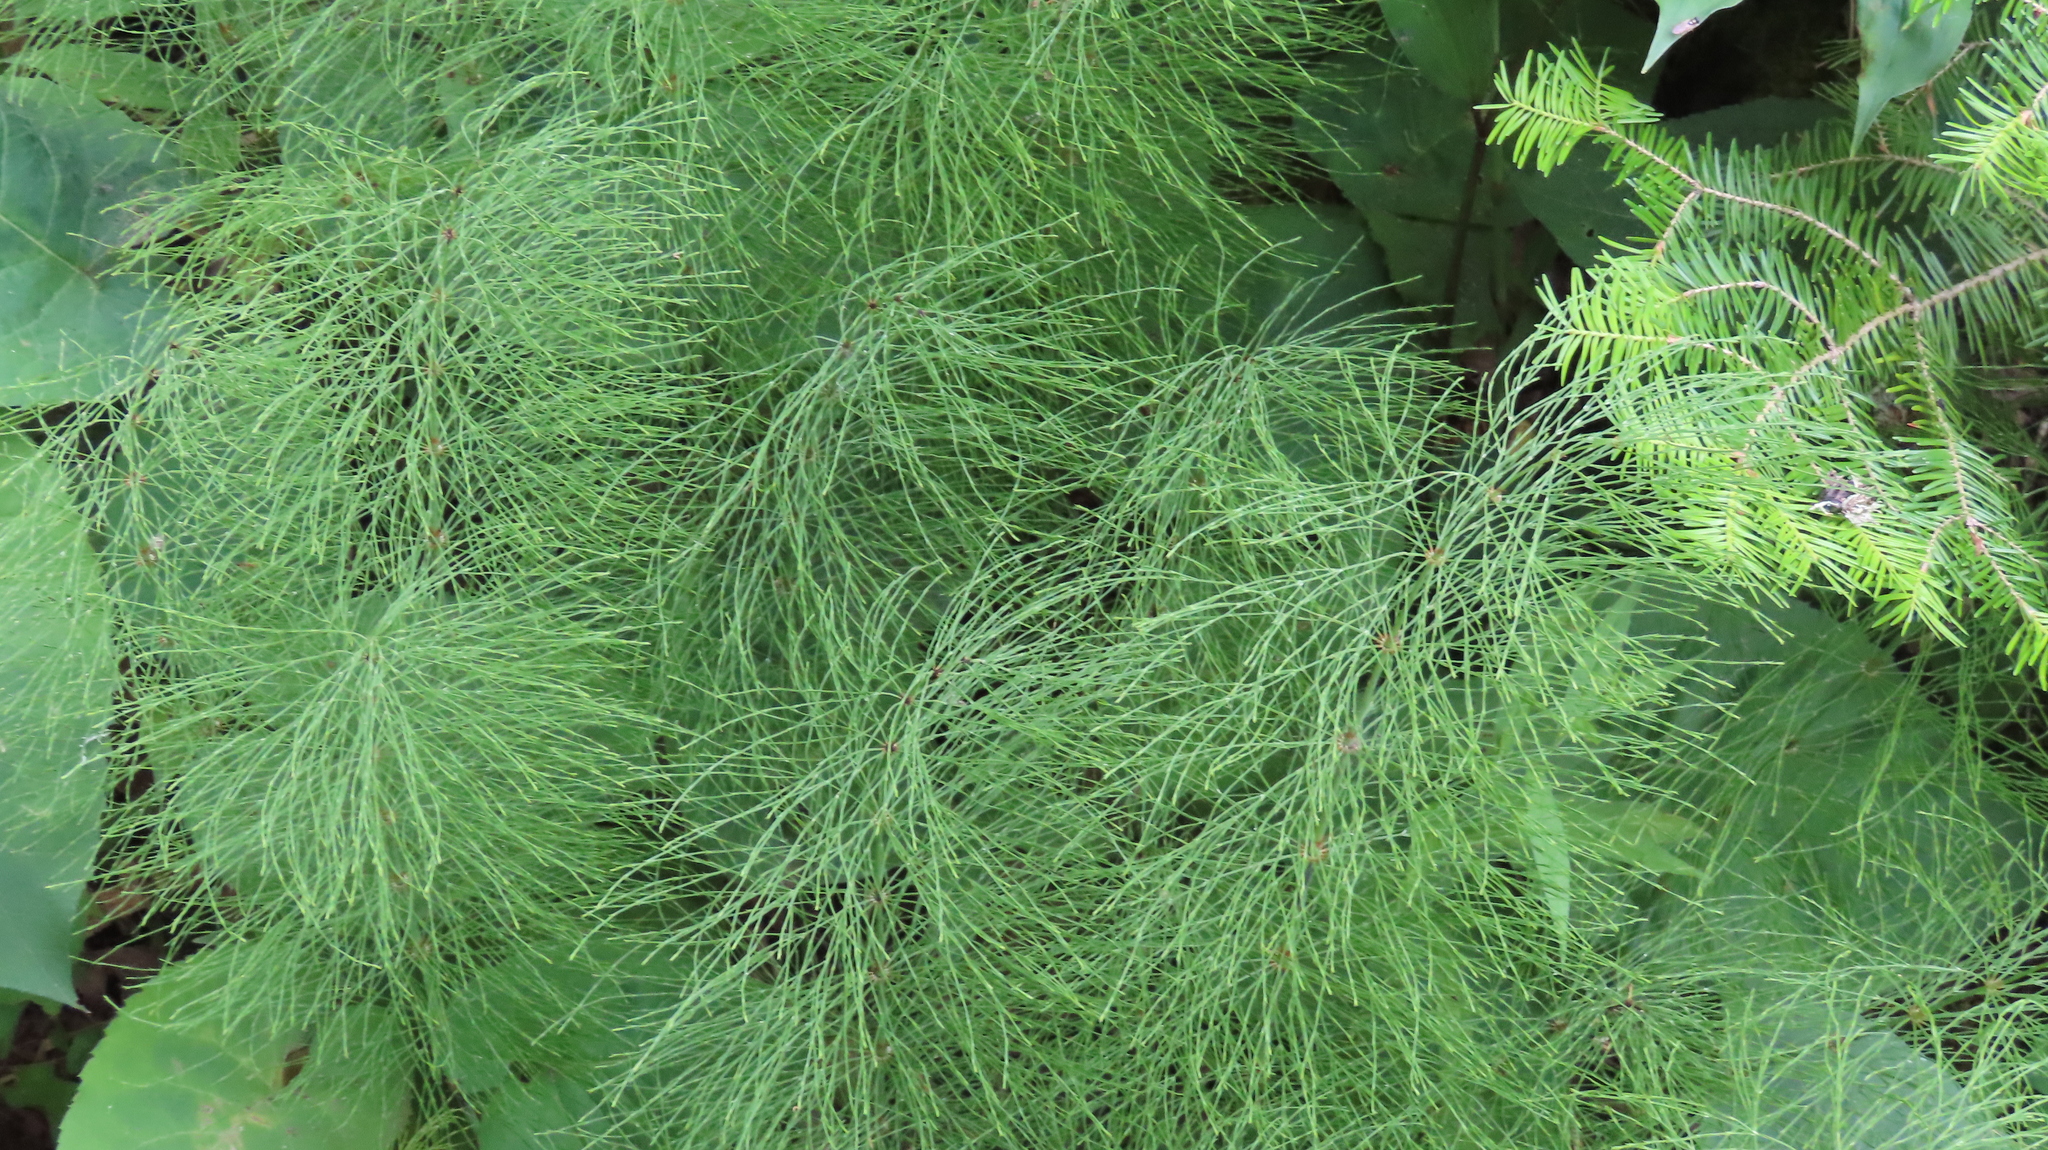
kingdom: Plantae
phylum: Tracheophyta
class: Polypodiopsida
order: Equisetales
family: Equisetaceae
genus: Equisetum
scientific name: Equisetum sylvaticum
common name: Wood horsetail
